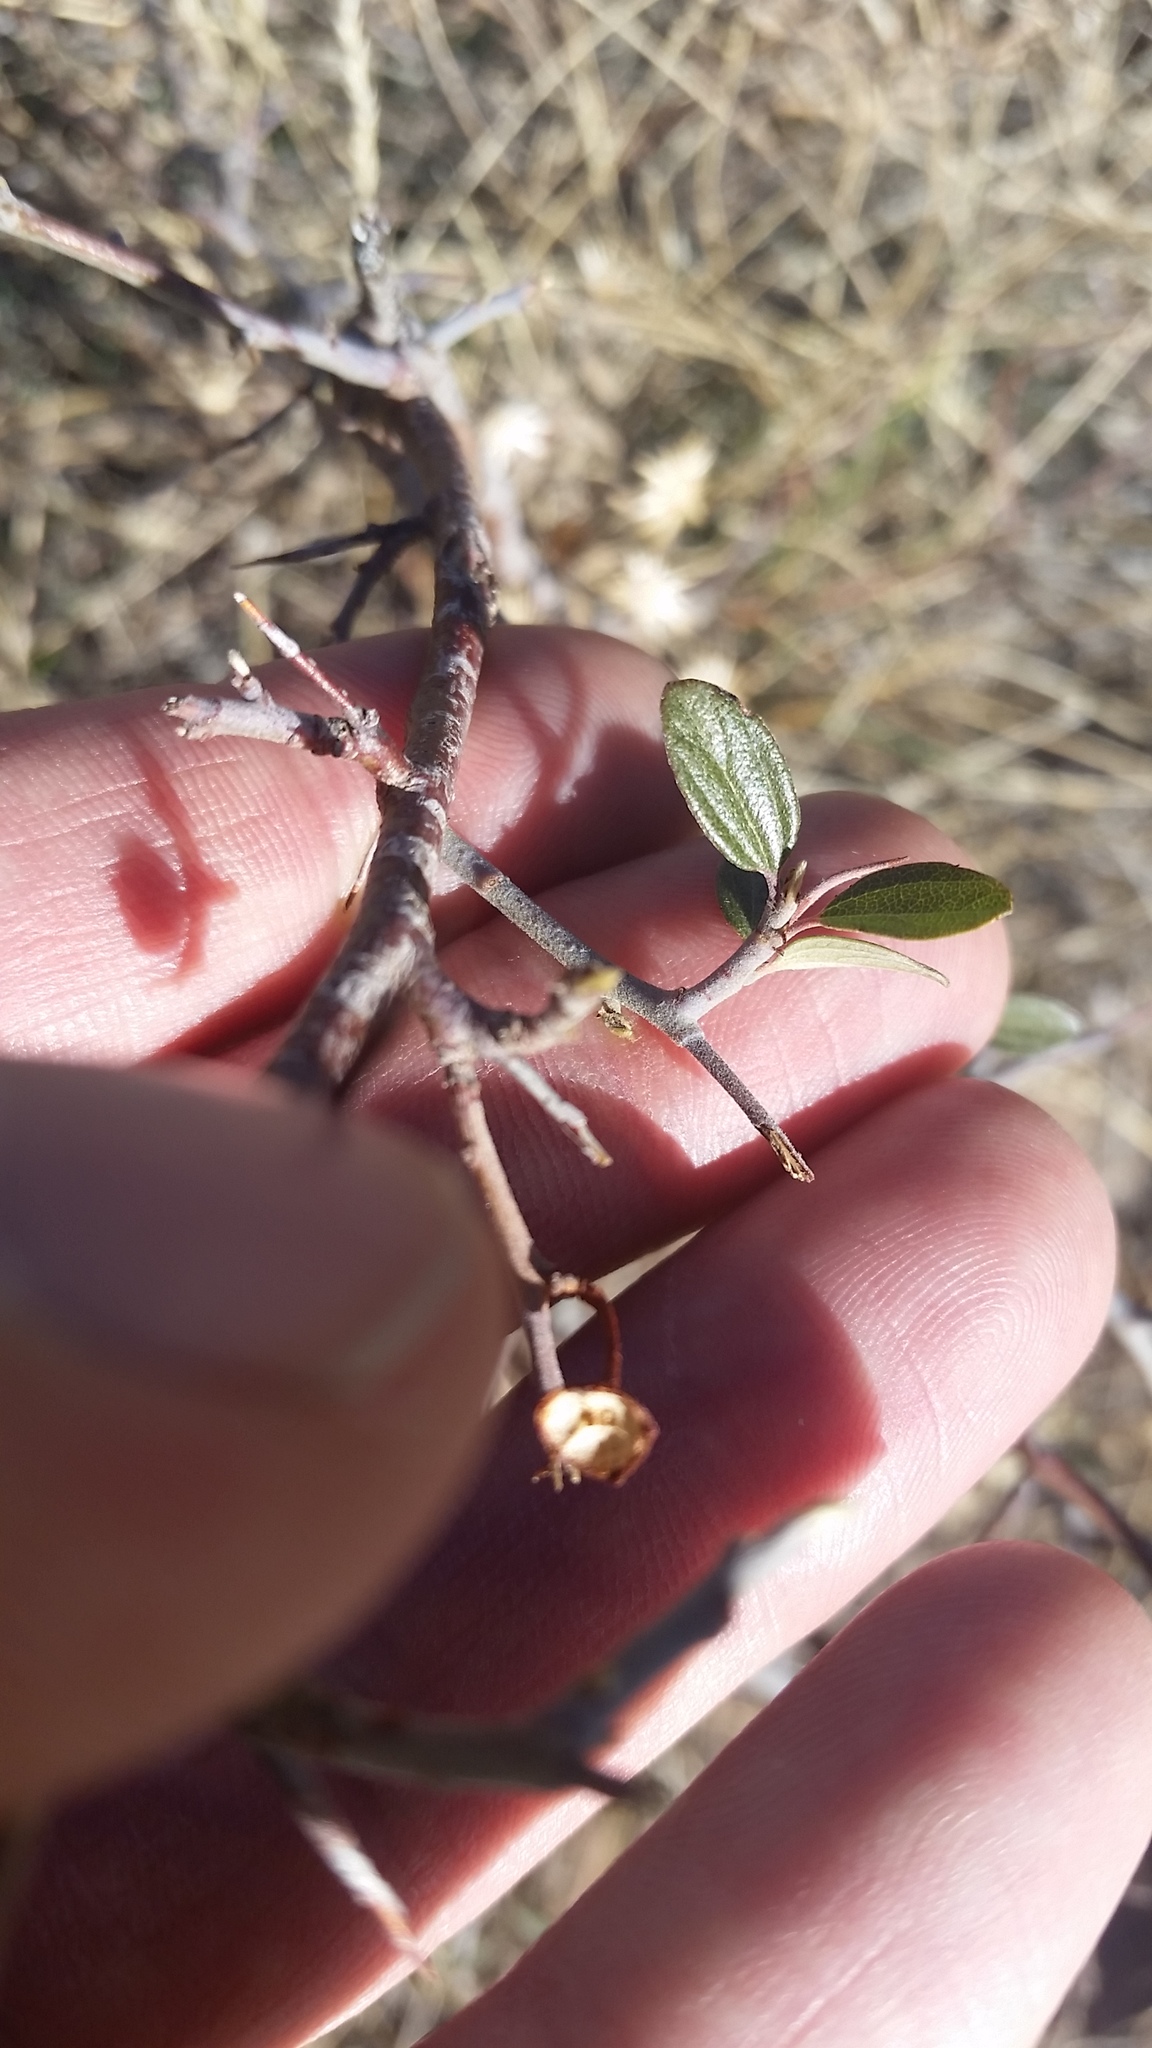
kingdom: Plantae
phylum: Tracheophyta
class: Magnoliopsida
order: Rosales
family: Rhamnaceae
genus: Ceanothus
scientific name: Ceanothus fendleri
